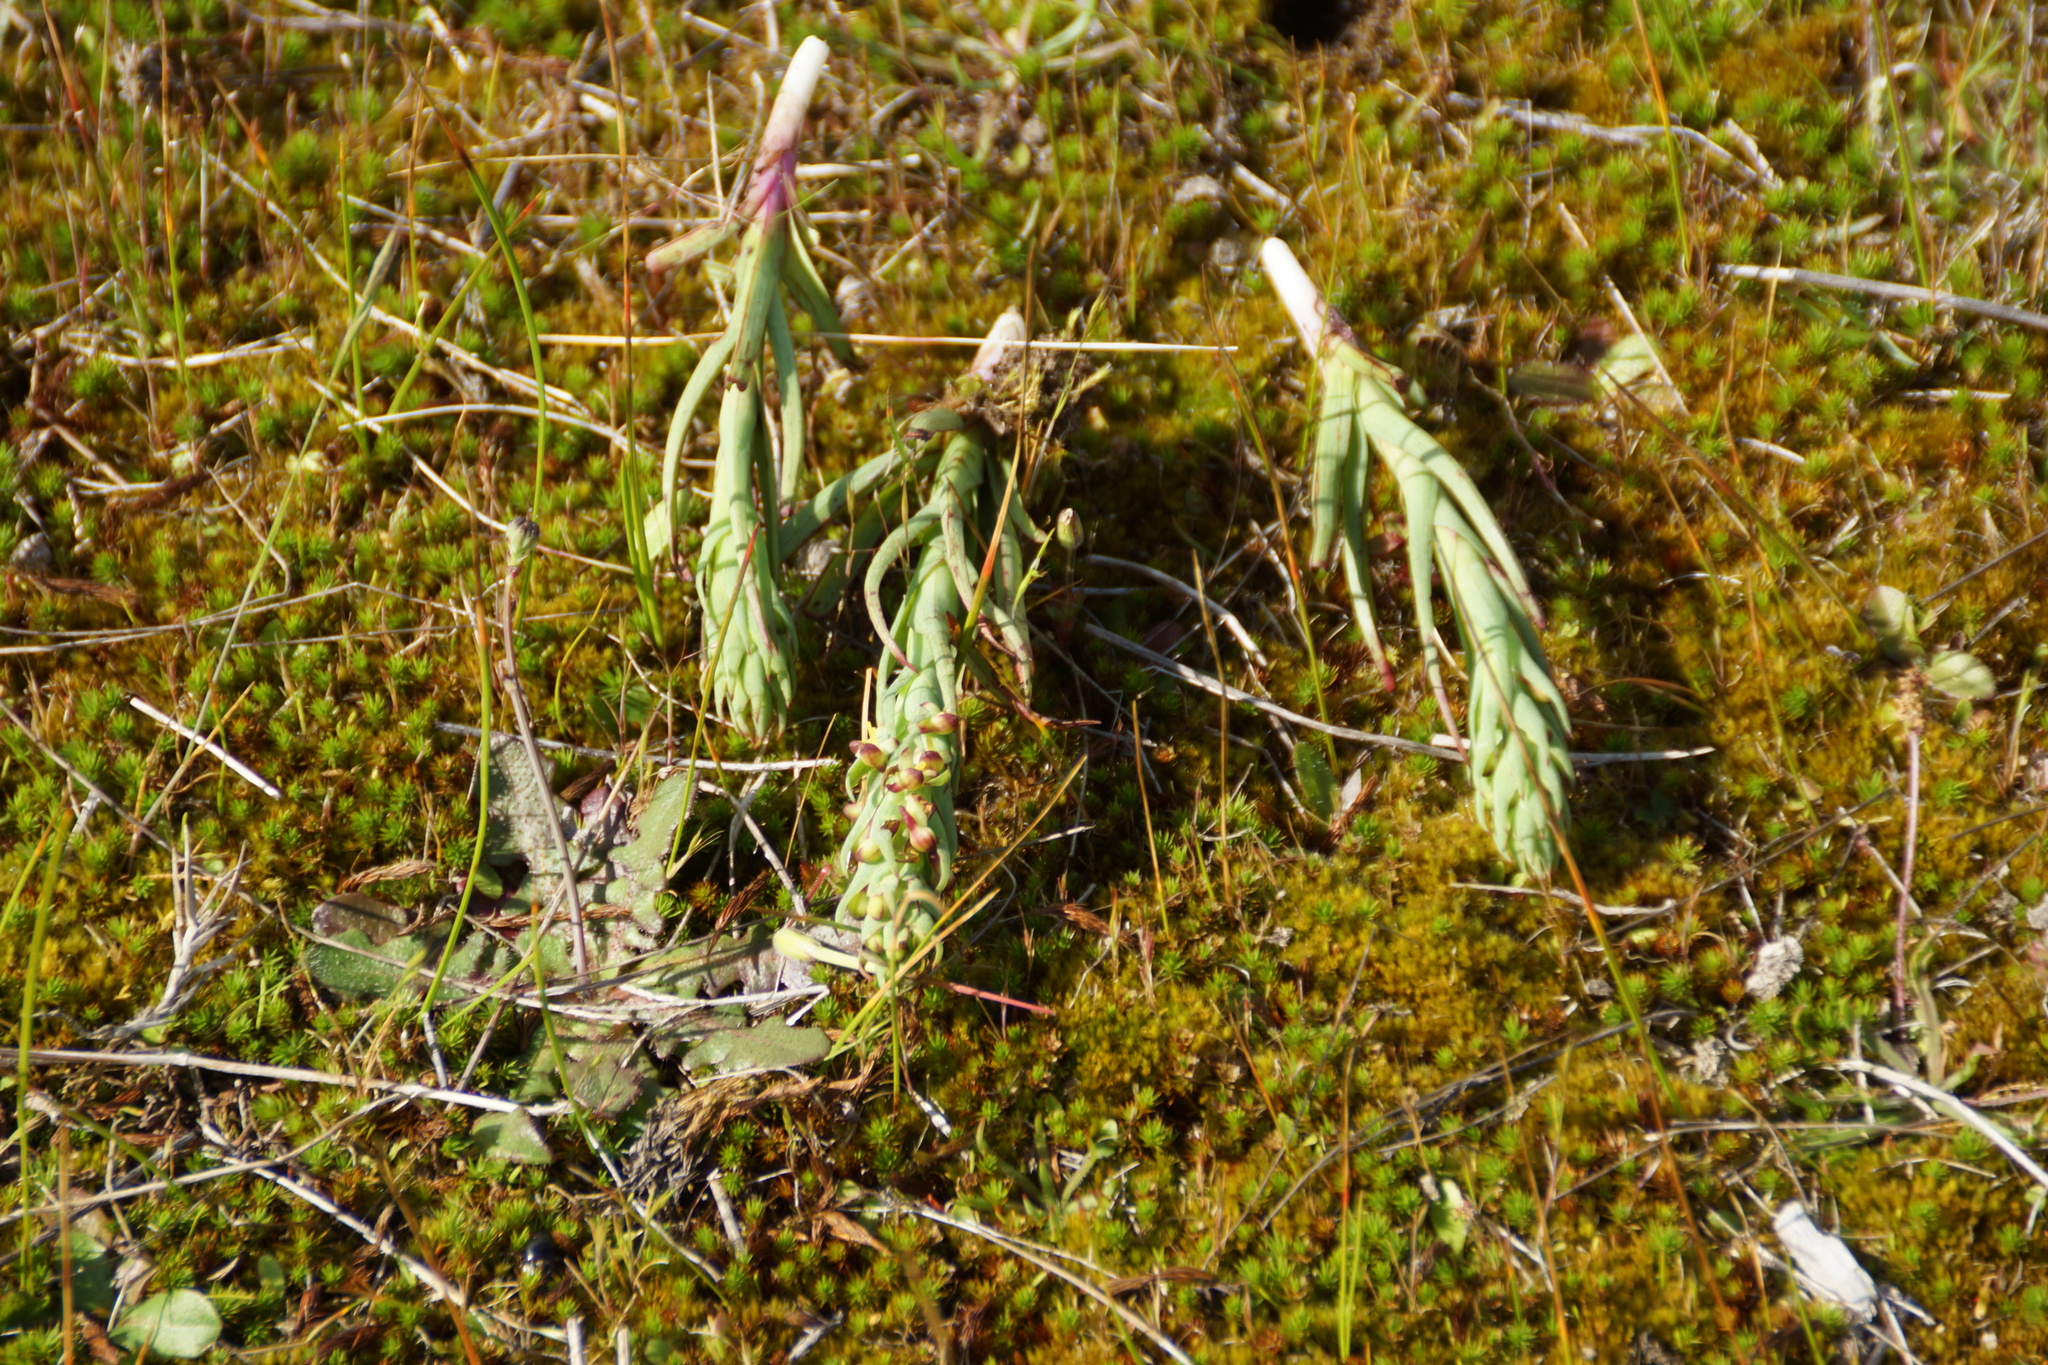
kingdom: Plantae
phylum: Tracheophyta
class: Liliopsida
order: Asparagales
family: Orchidaceae
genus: Disa
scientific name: Disa bracteata
